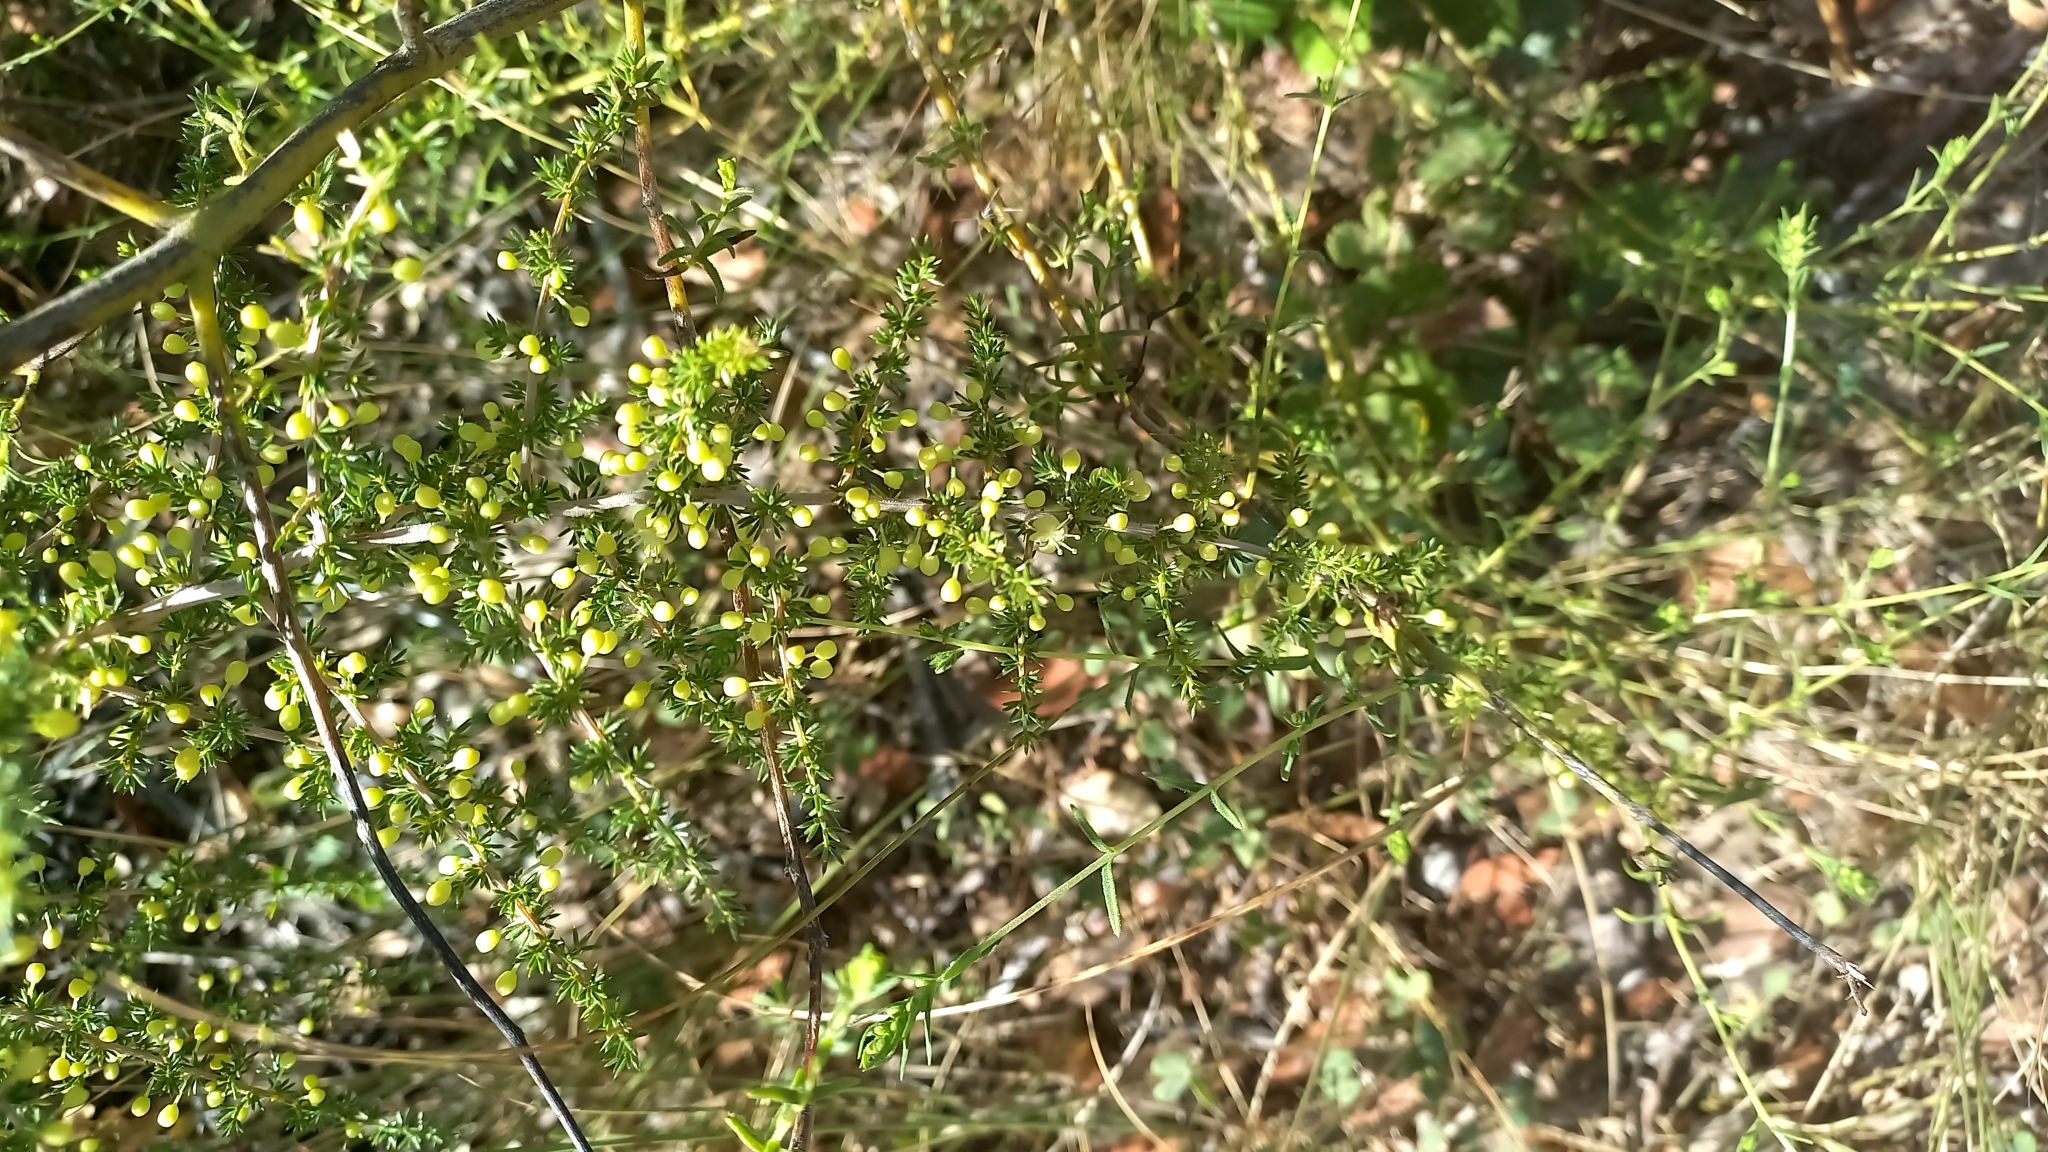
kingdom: Plantae
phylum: Tracheophyta
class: Liliopsida
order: Asparagales
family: Asparagaceae
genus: Asparagus
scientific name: Asparagus acutifolius
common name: Wild asparagus
